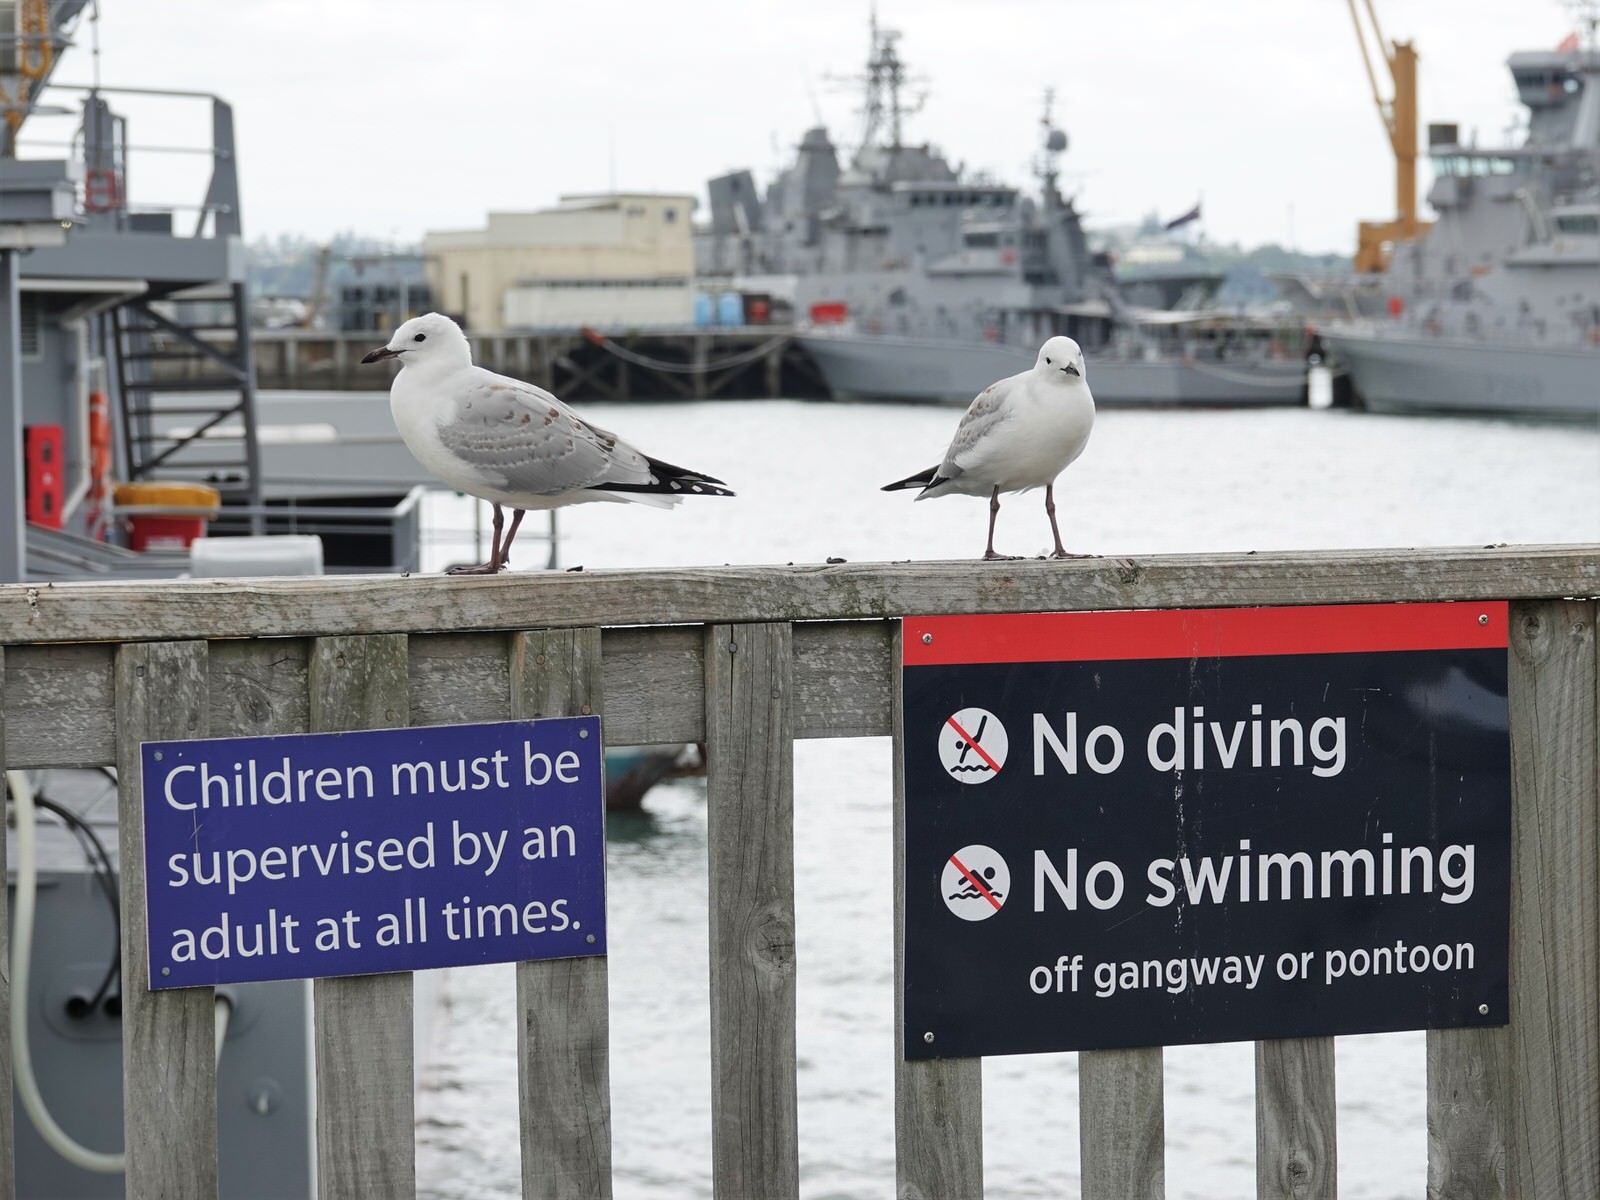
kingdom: Animalia
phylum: Chordata
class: Aves
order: Charadriiformes
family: Laridae
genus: Chroicocephalus
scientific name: Chroicocephalus novaehollandiae
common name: Silver gull
